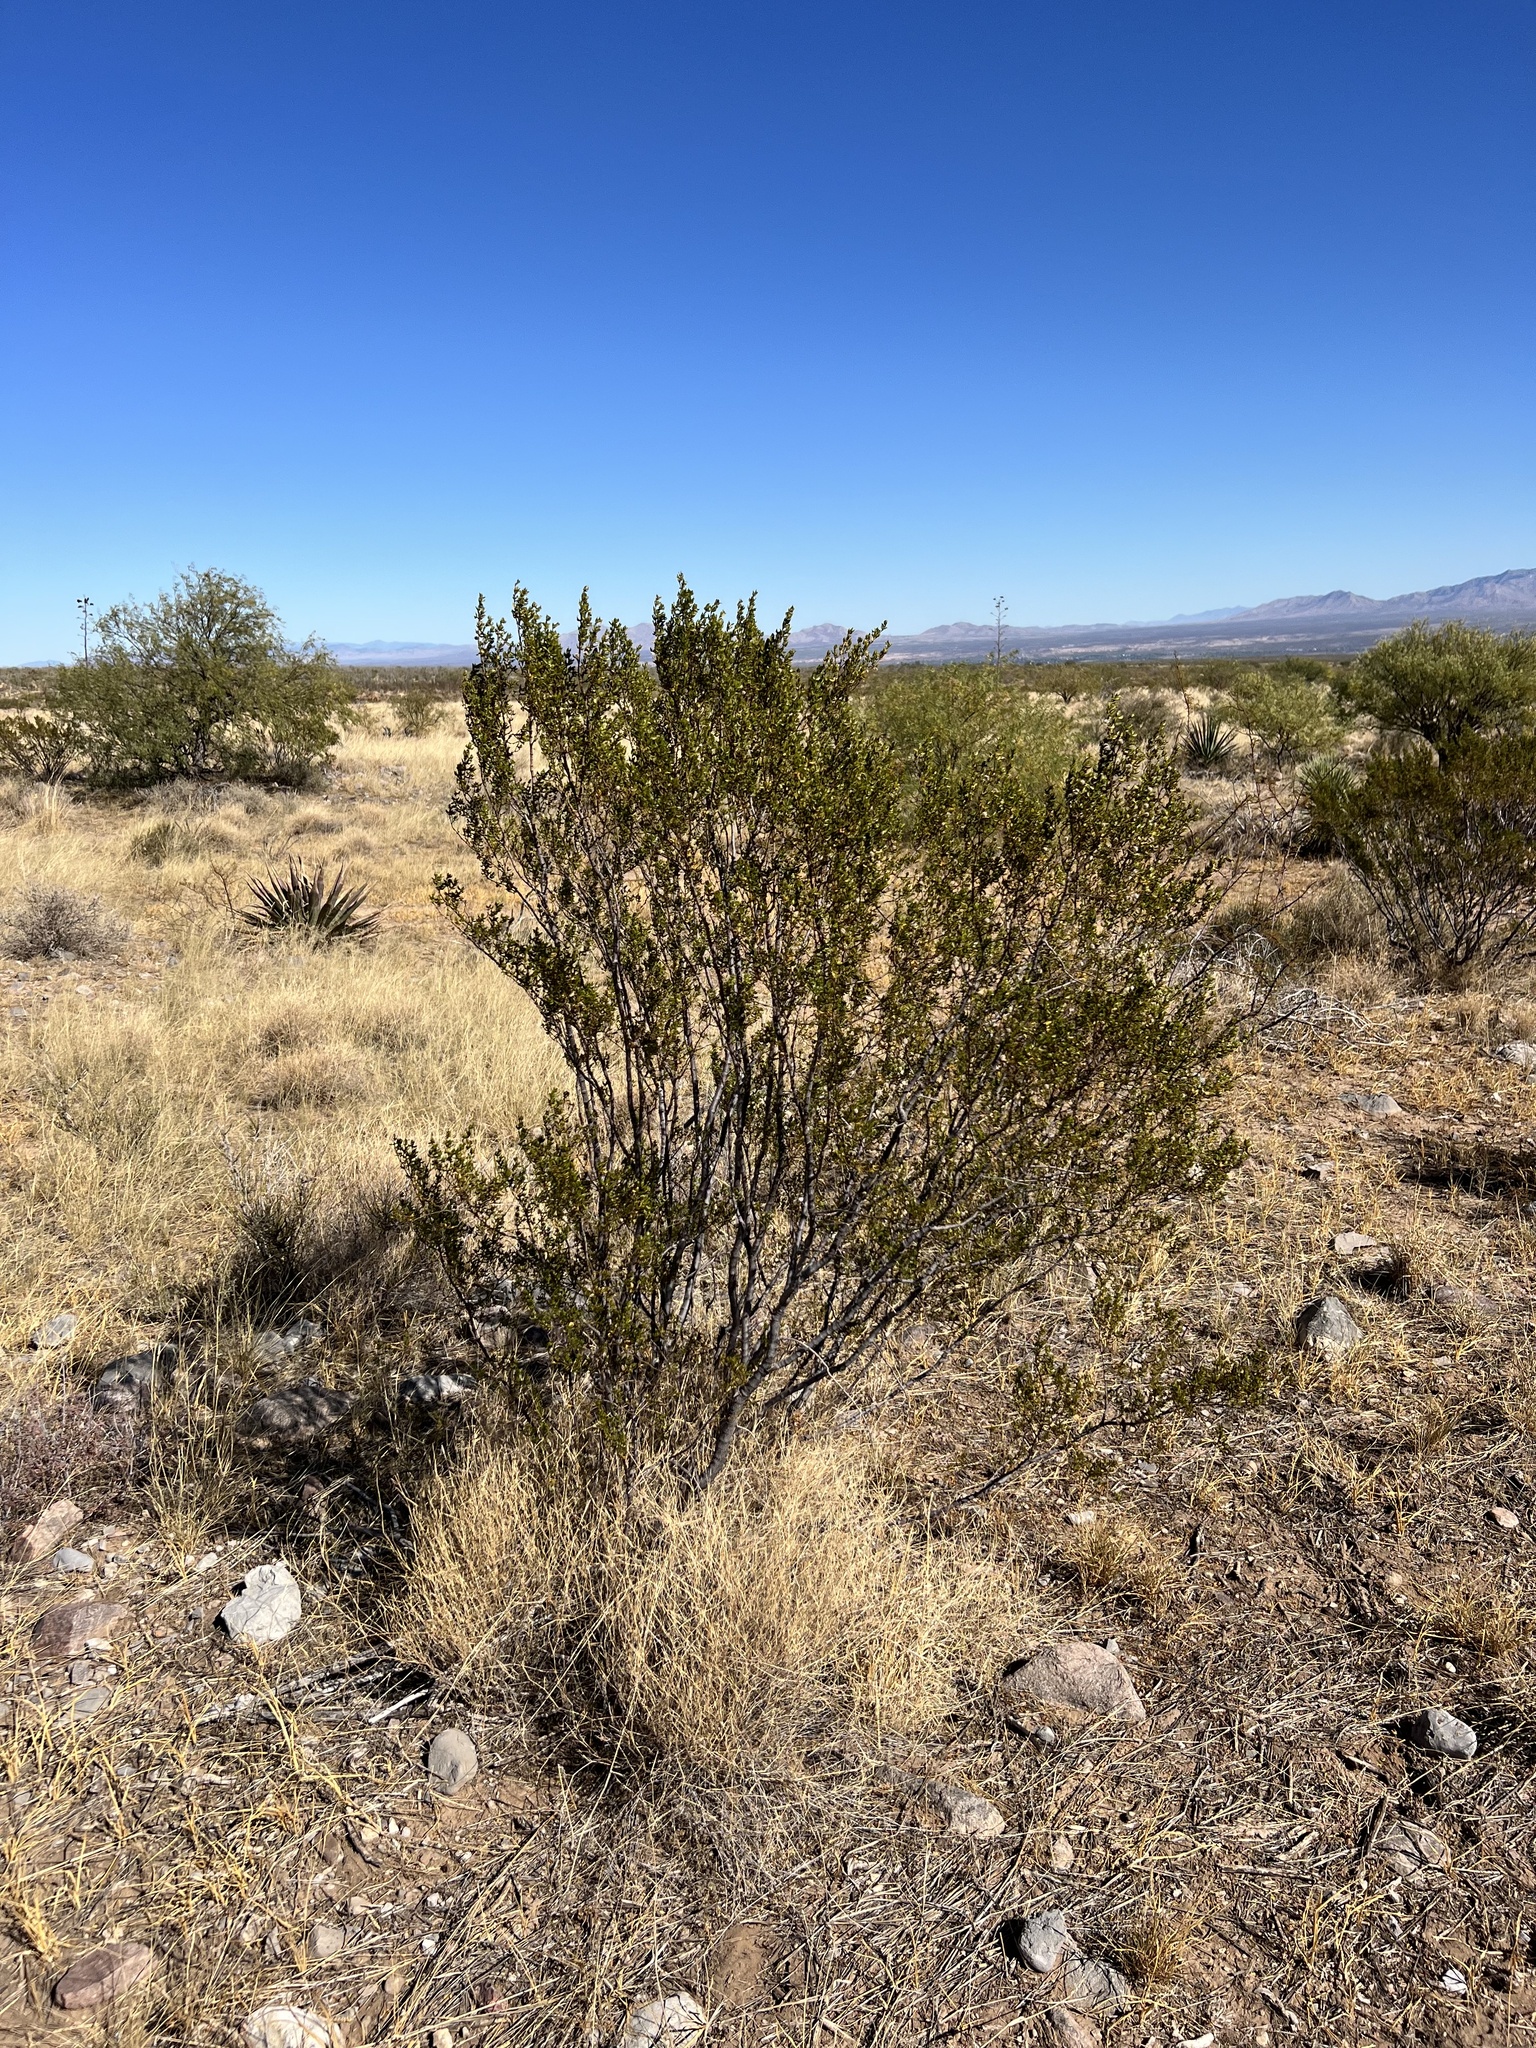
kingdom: Plantae
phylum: Tracheophyta
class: Magnoliopsida
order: Zygophyllales
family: Zygophyllaceae
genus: Larrea
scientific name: Larrea tridentata
